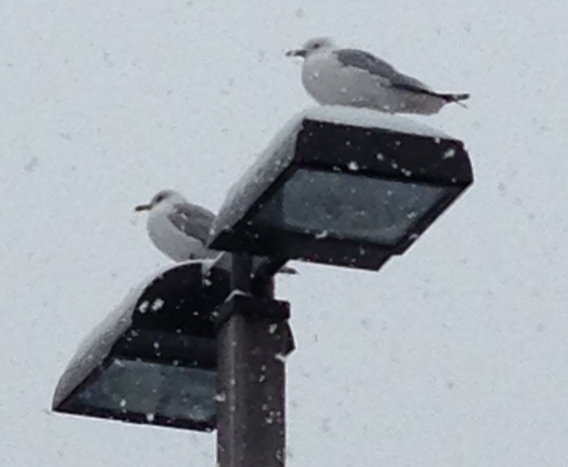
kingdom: Animalia
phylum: Chordata
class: Aves
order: Charadriiformes
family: Laridae
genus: Larus
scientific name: Larus delawarensis
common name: Ring-billed gull
